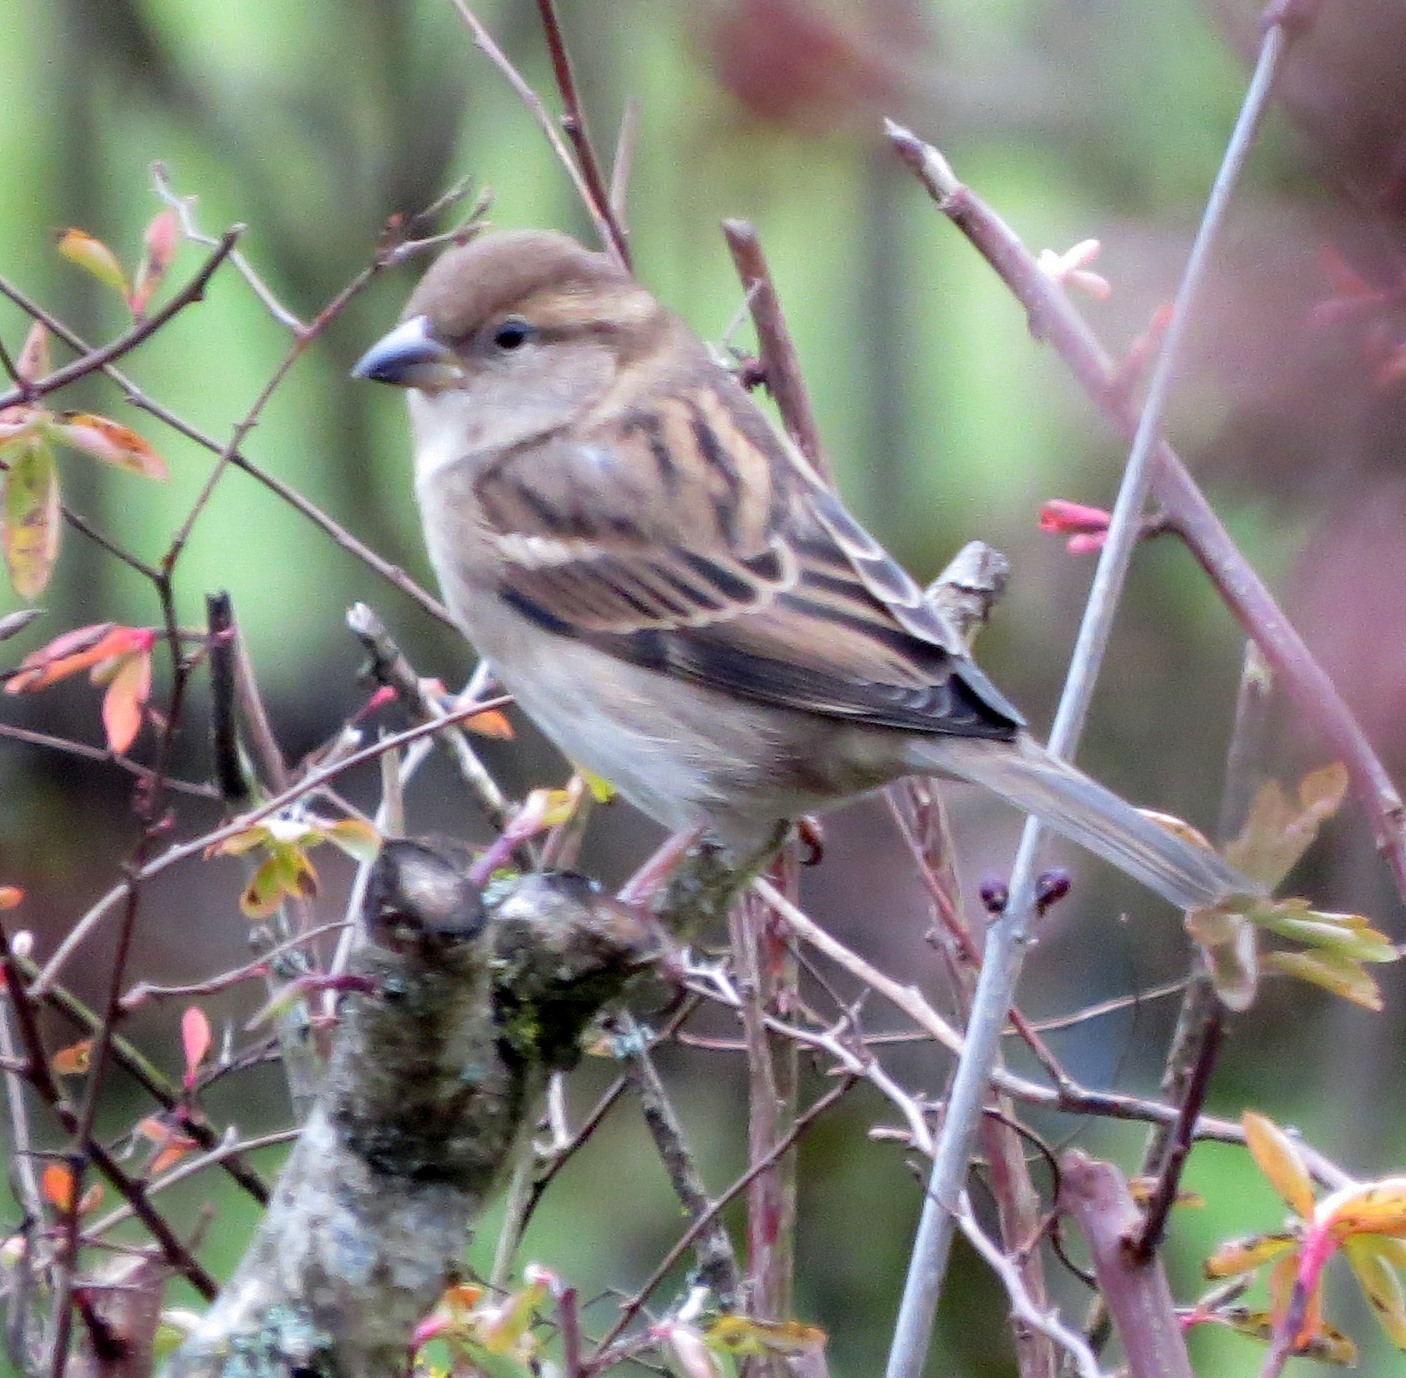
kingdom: Animalia
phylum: Chordata
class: Aves
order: Passeriformes
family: Passeridae
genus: Passer
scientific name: Passer domesticus
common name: House sparrow
